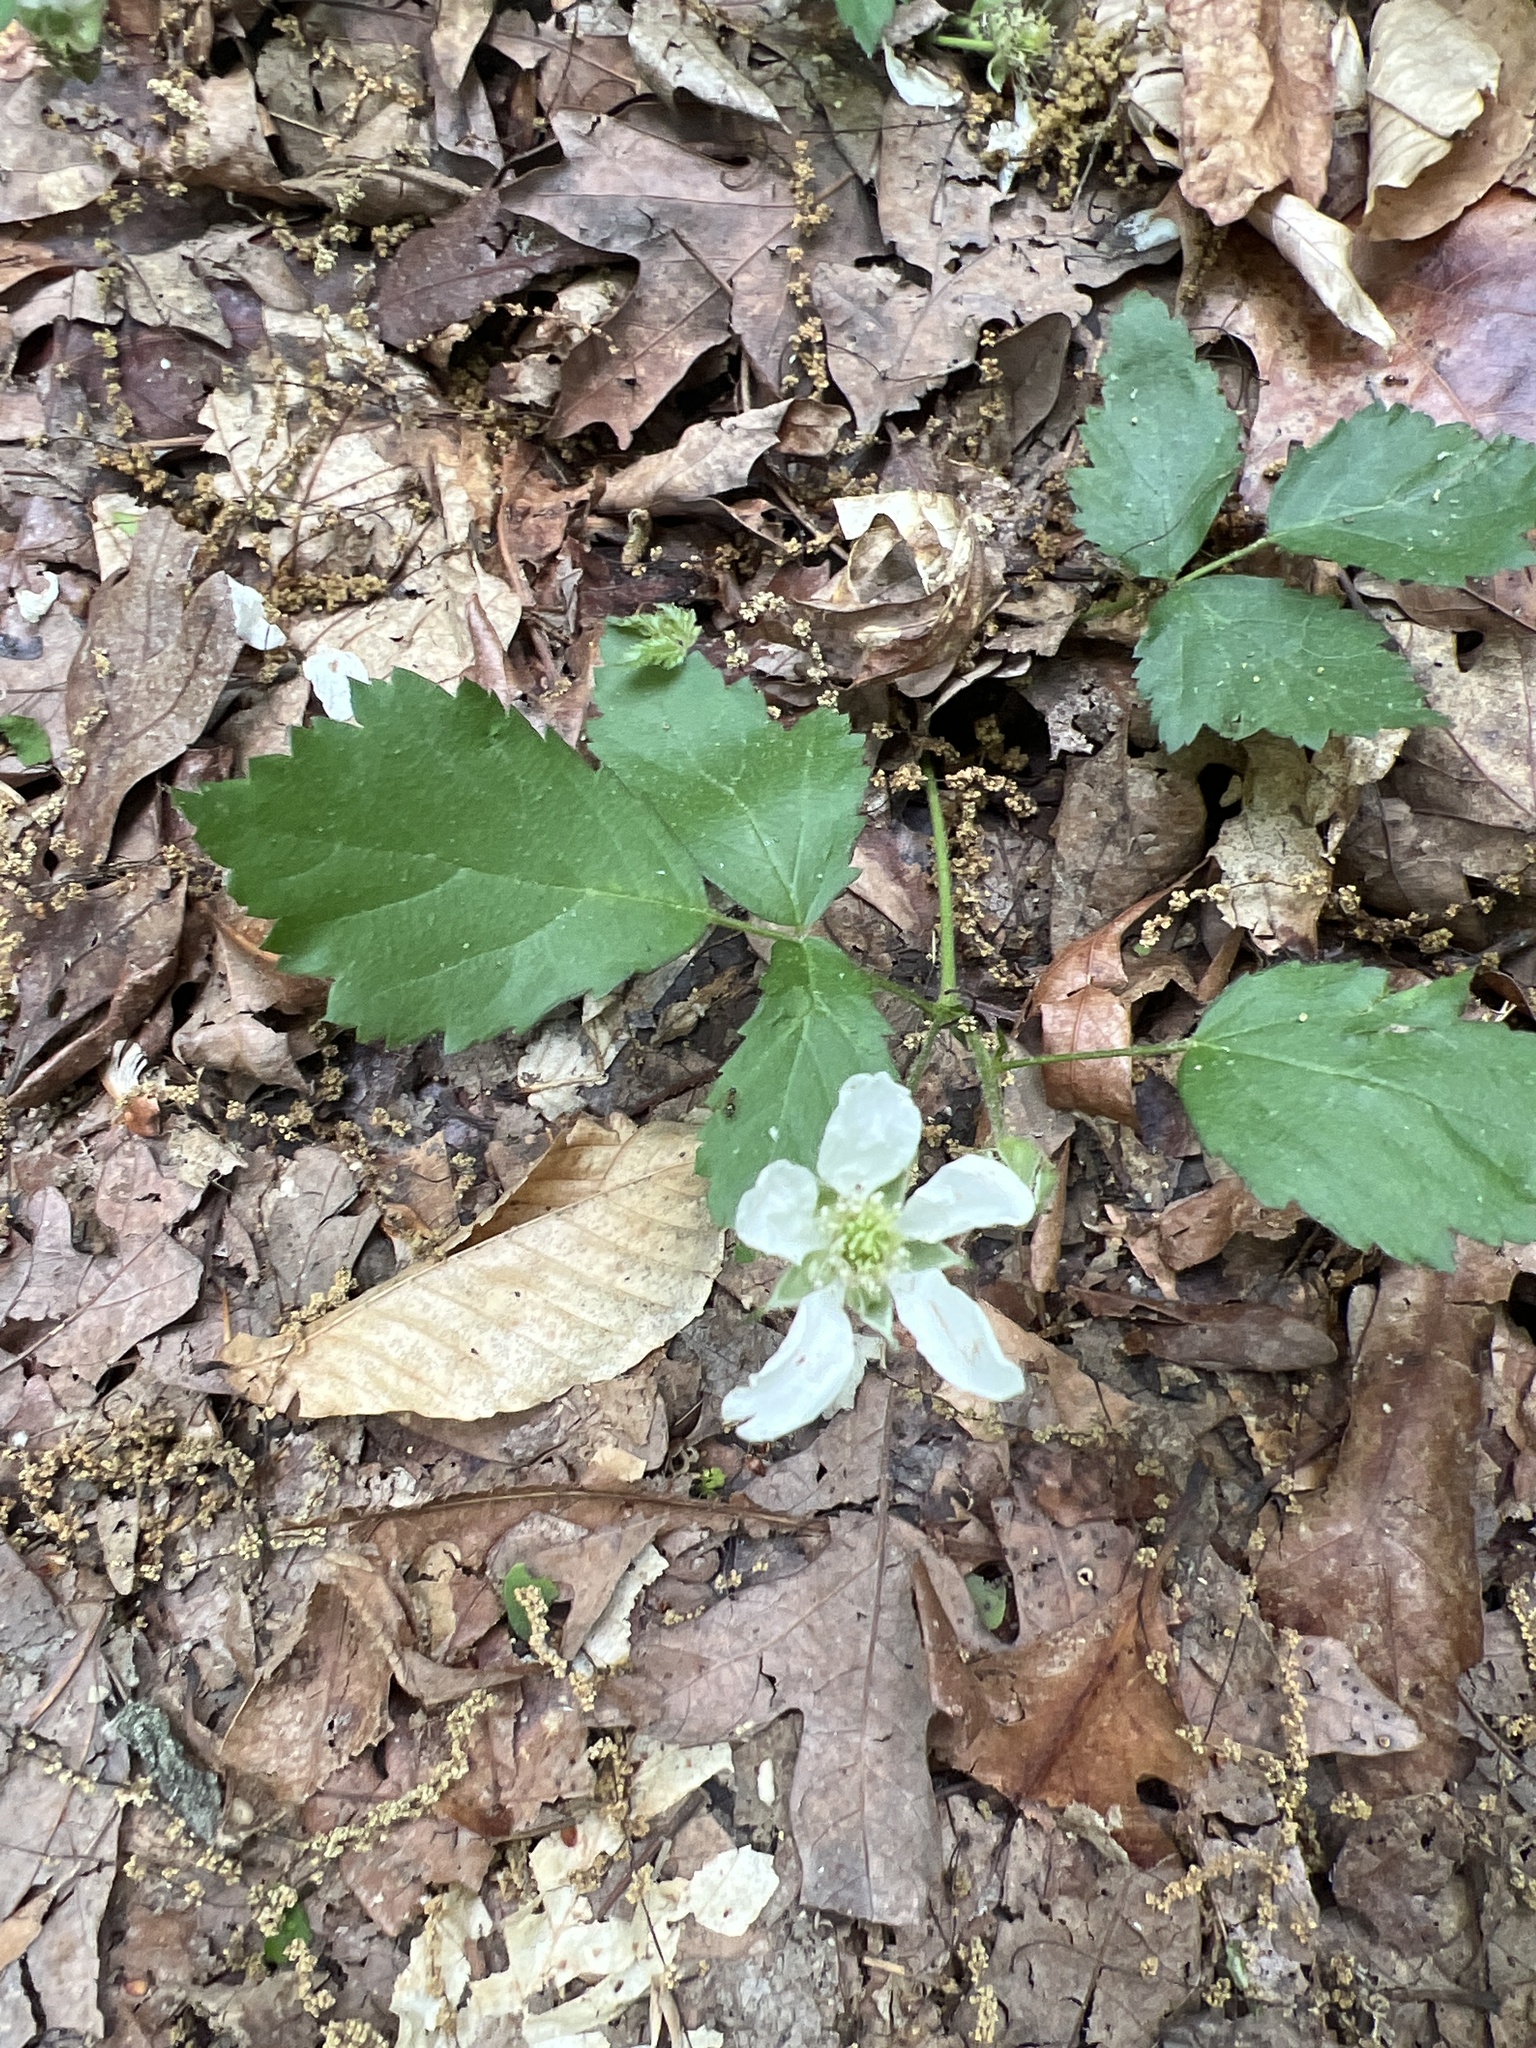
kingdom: Plantae
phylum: Tracheophyta
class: Magnoliopsida
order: Rosales
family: Rosaceae
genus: Rubus
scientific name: Rubus flagellaris
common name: American dewberry
